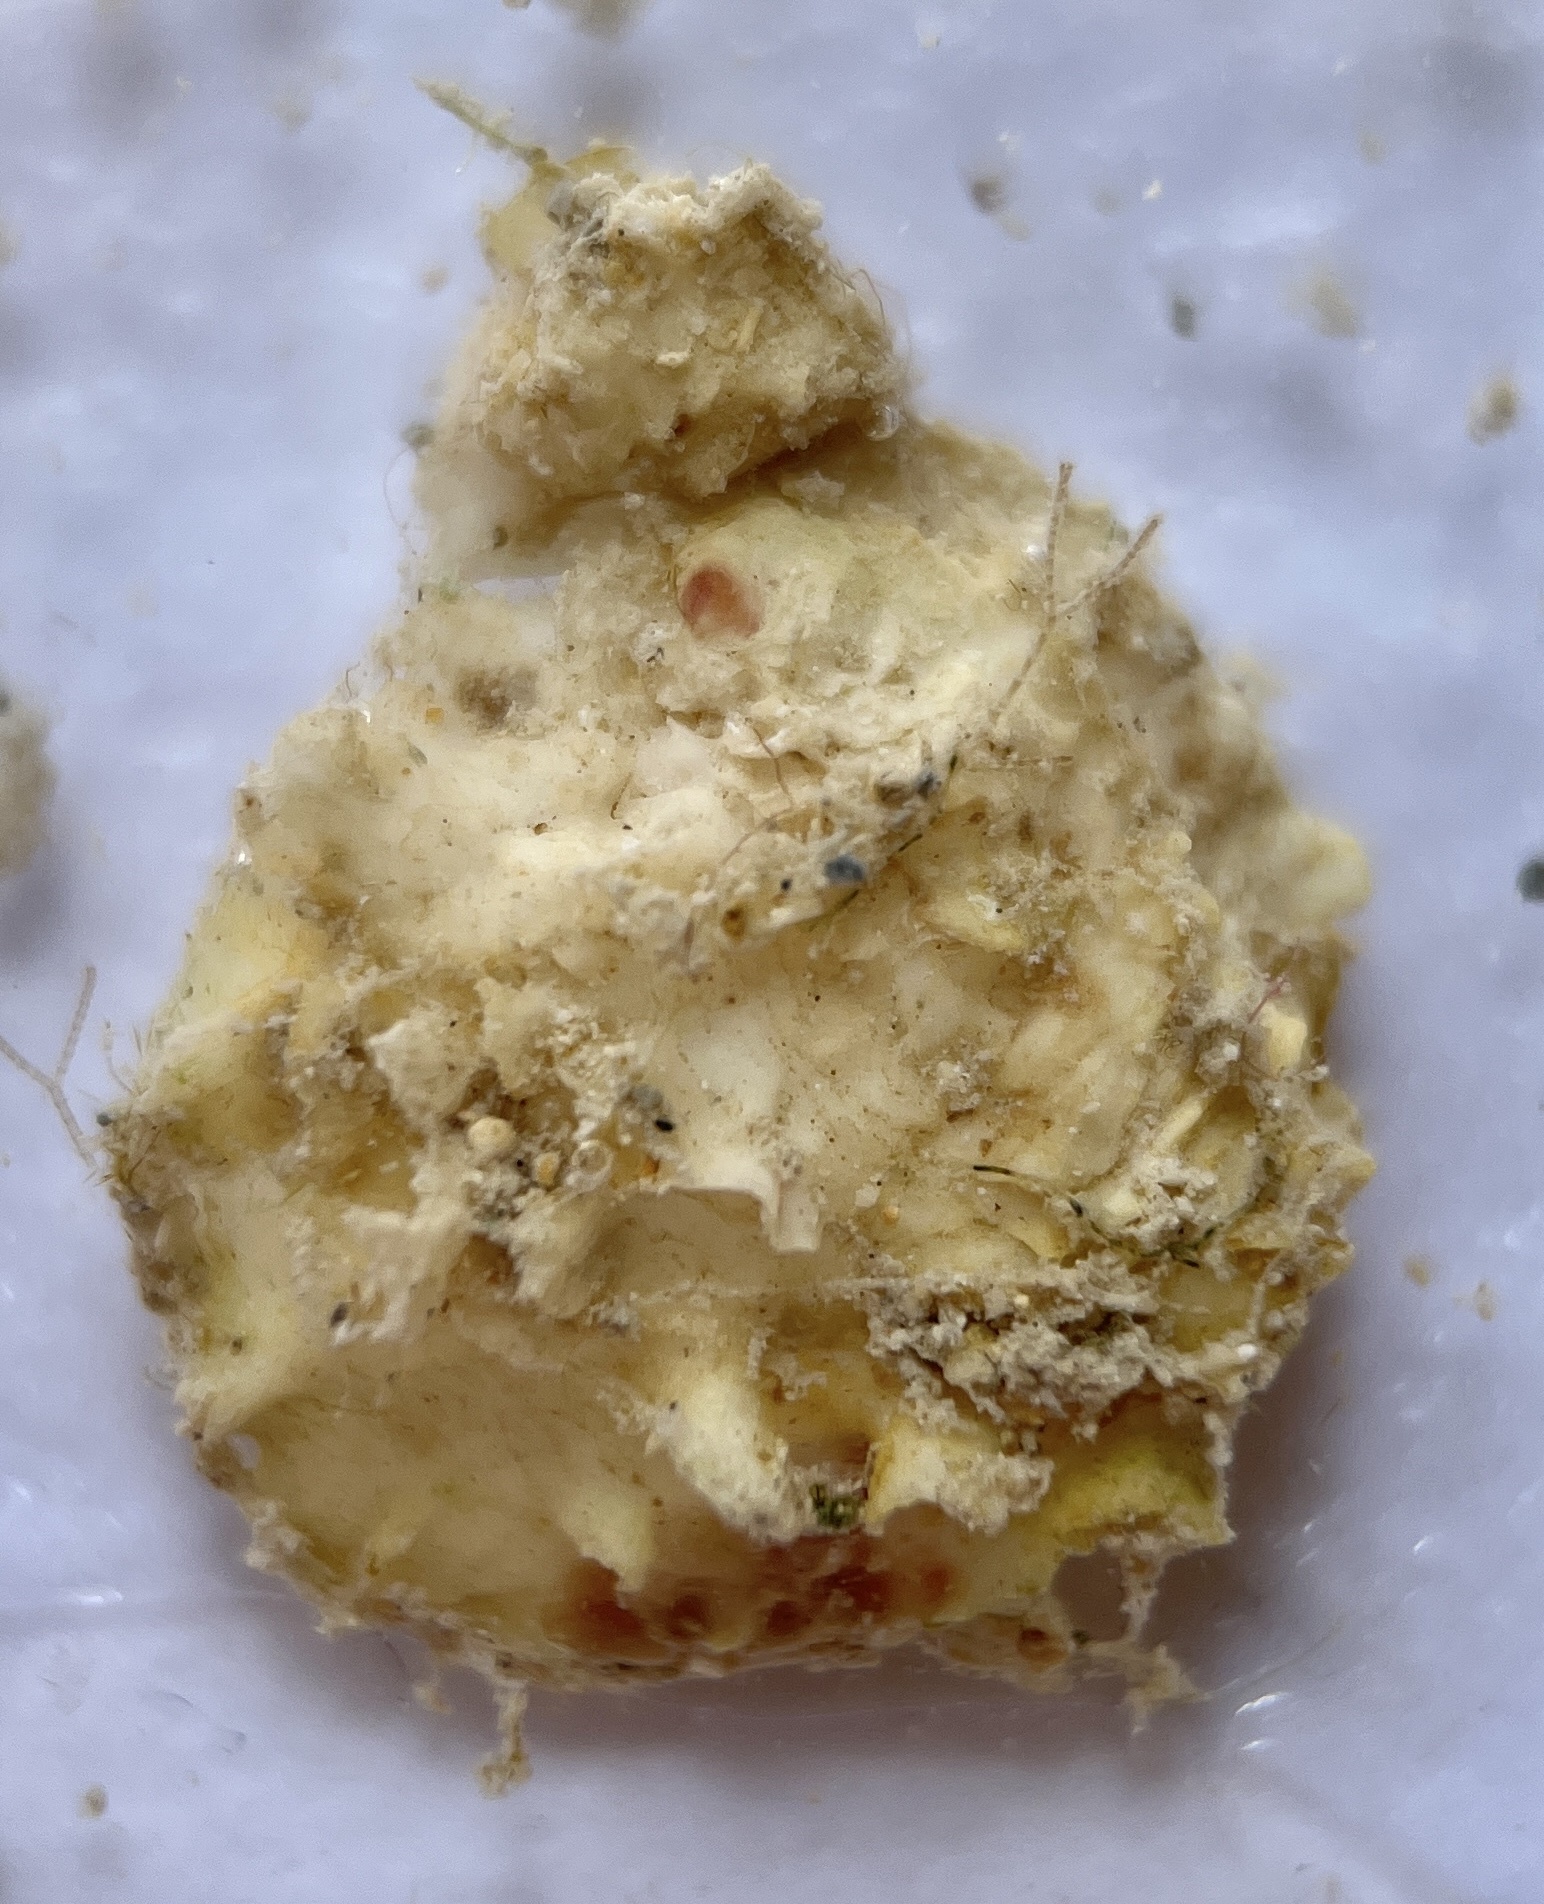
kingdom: Animalia
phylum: Mollusca
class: Bivalvia
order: Venerida
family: Chamidae
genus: Chama
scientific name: Chama macerophylla
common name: Leafy jewelbox
